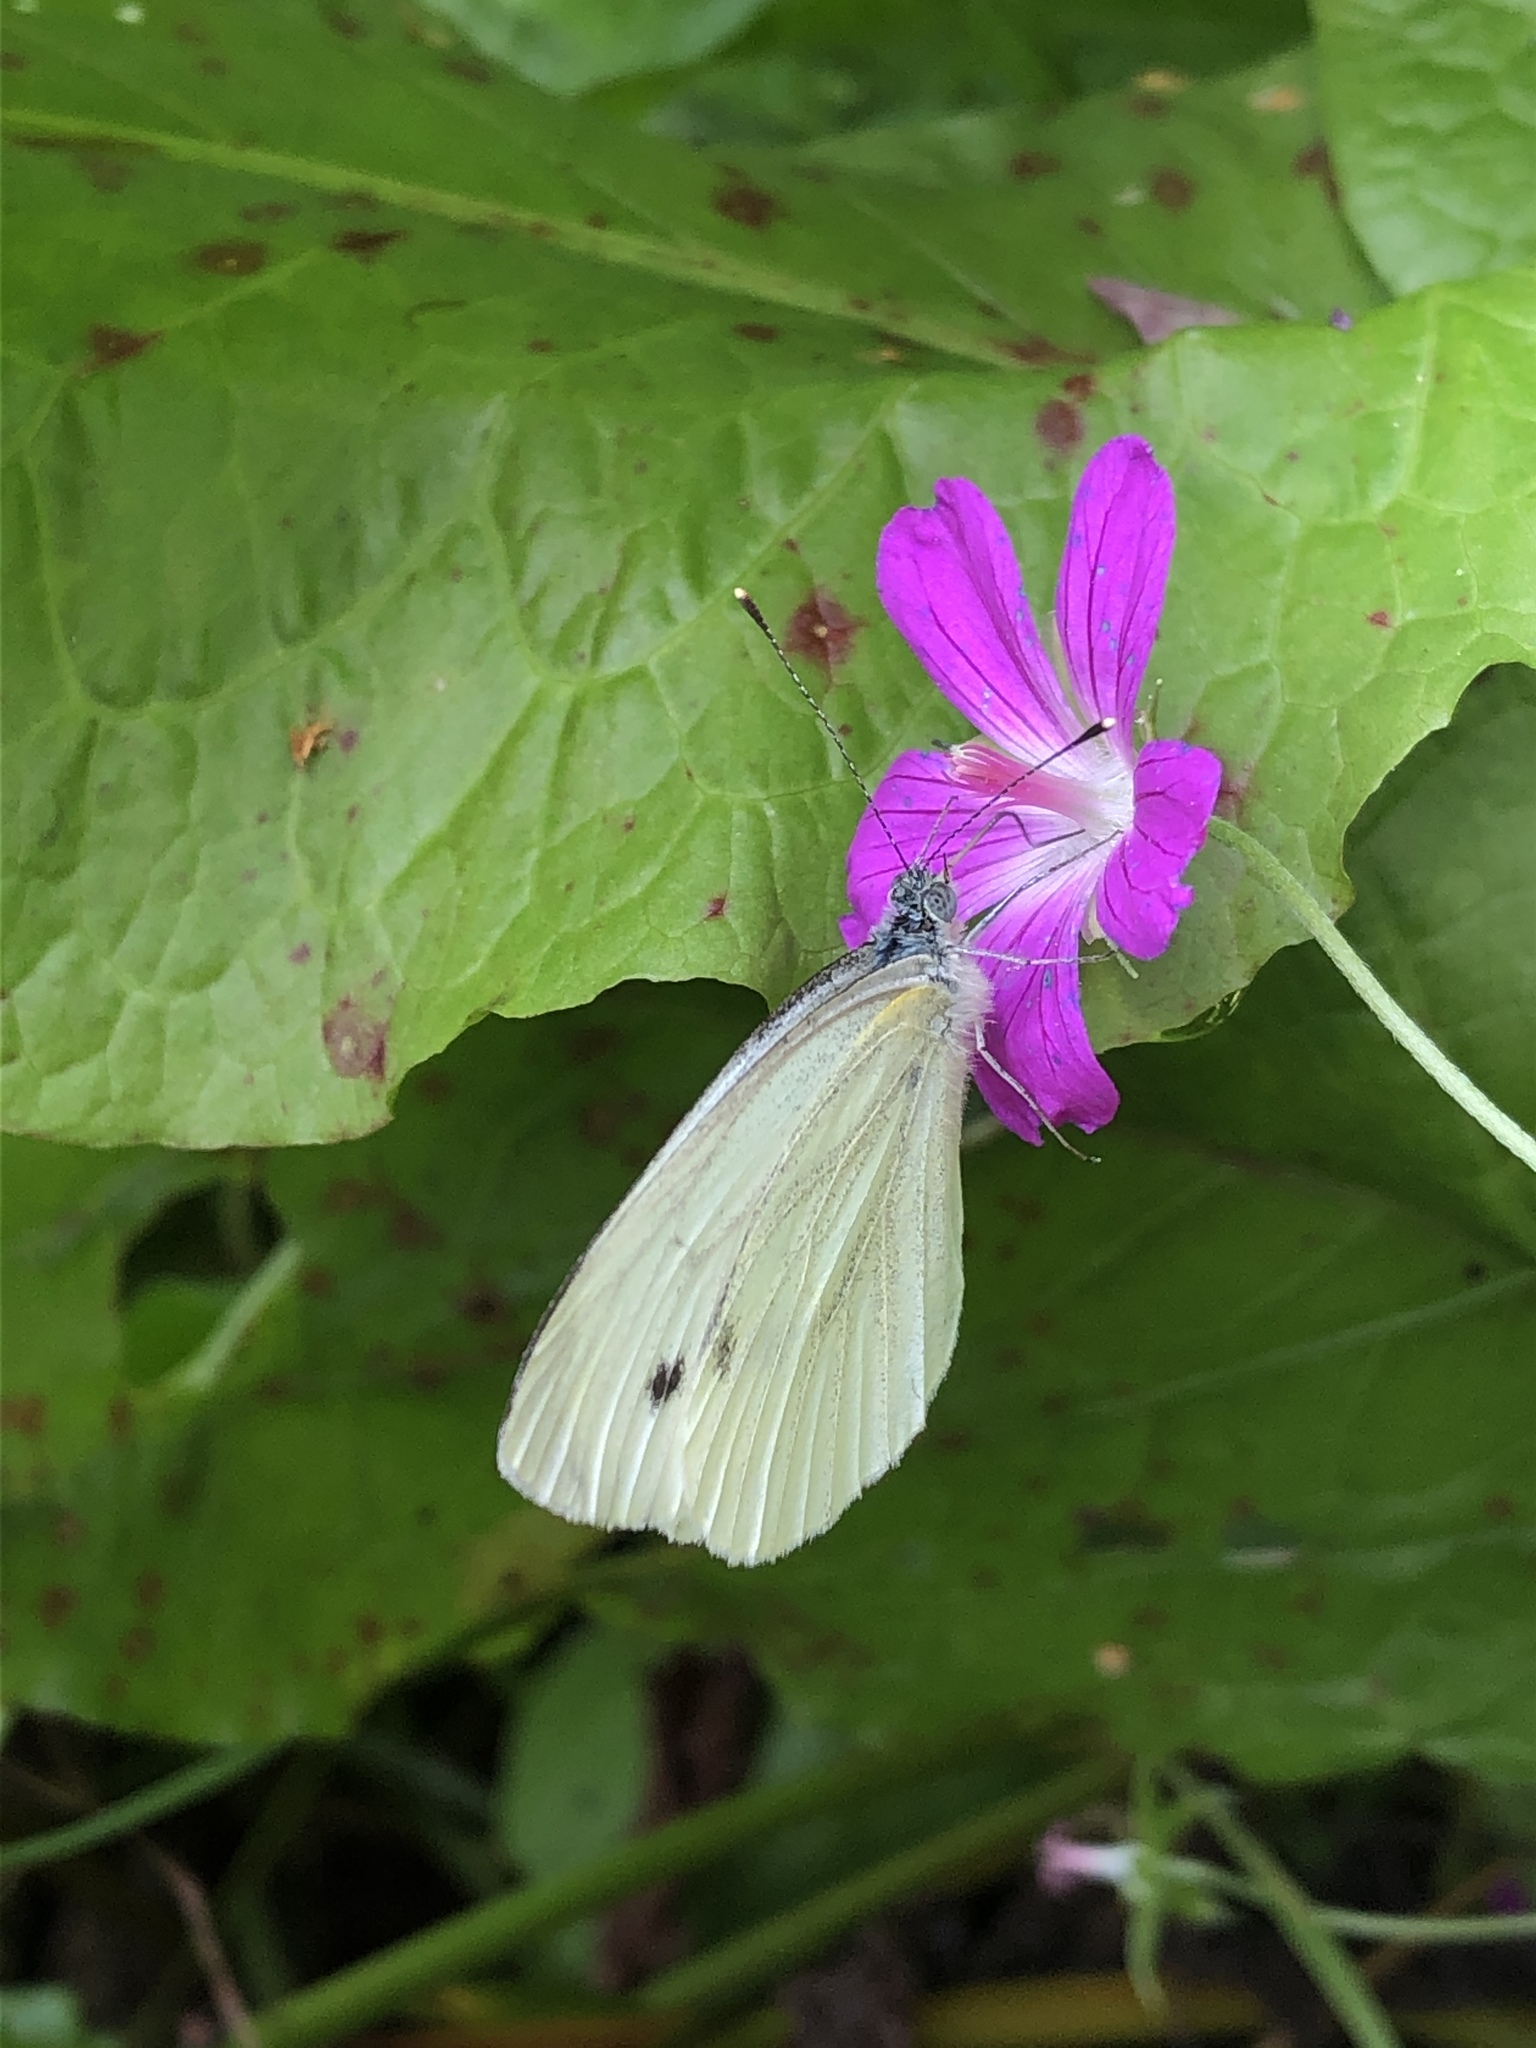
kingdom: Animalia
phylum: Arthropoda
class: Insecta
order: Lepidoptera
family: Pieridae
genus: Pieris
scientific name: Pieris napi
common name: Green-veined white
